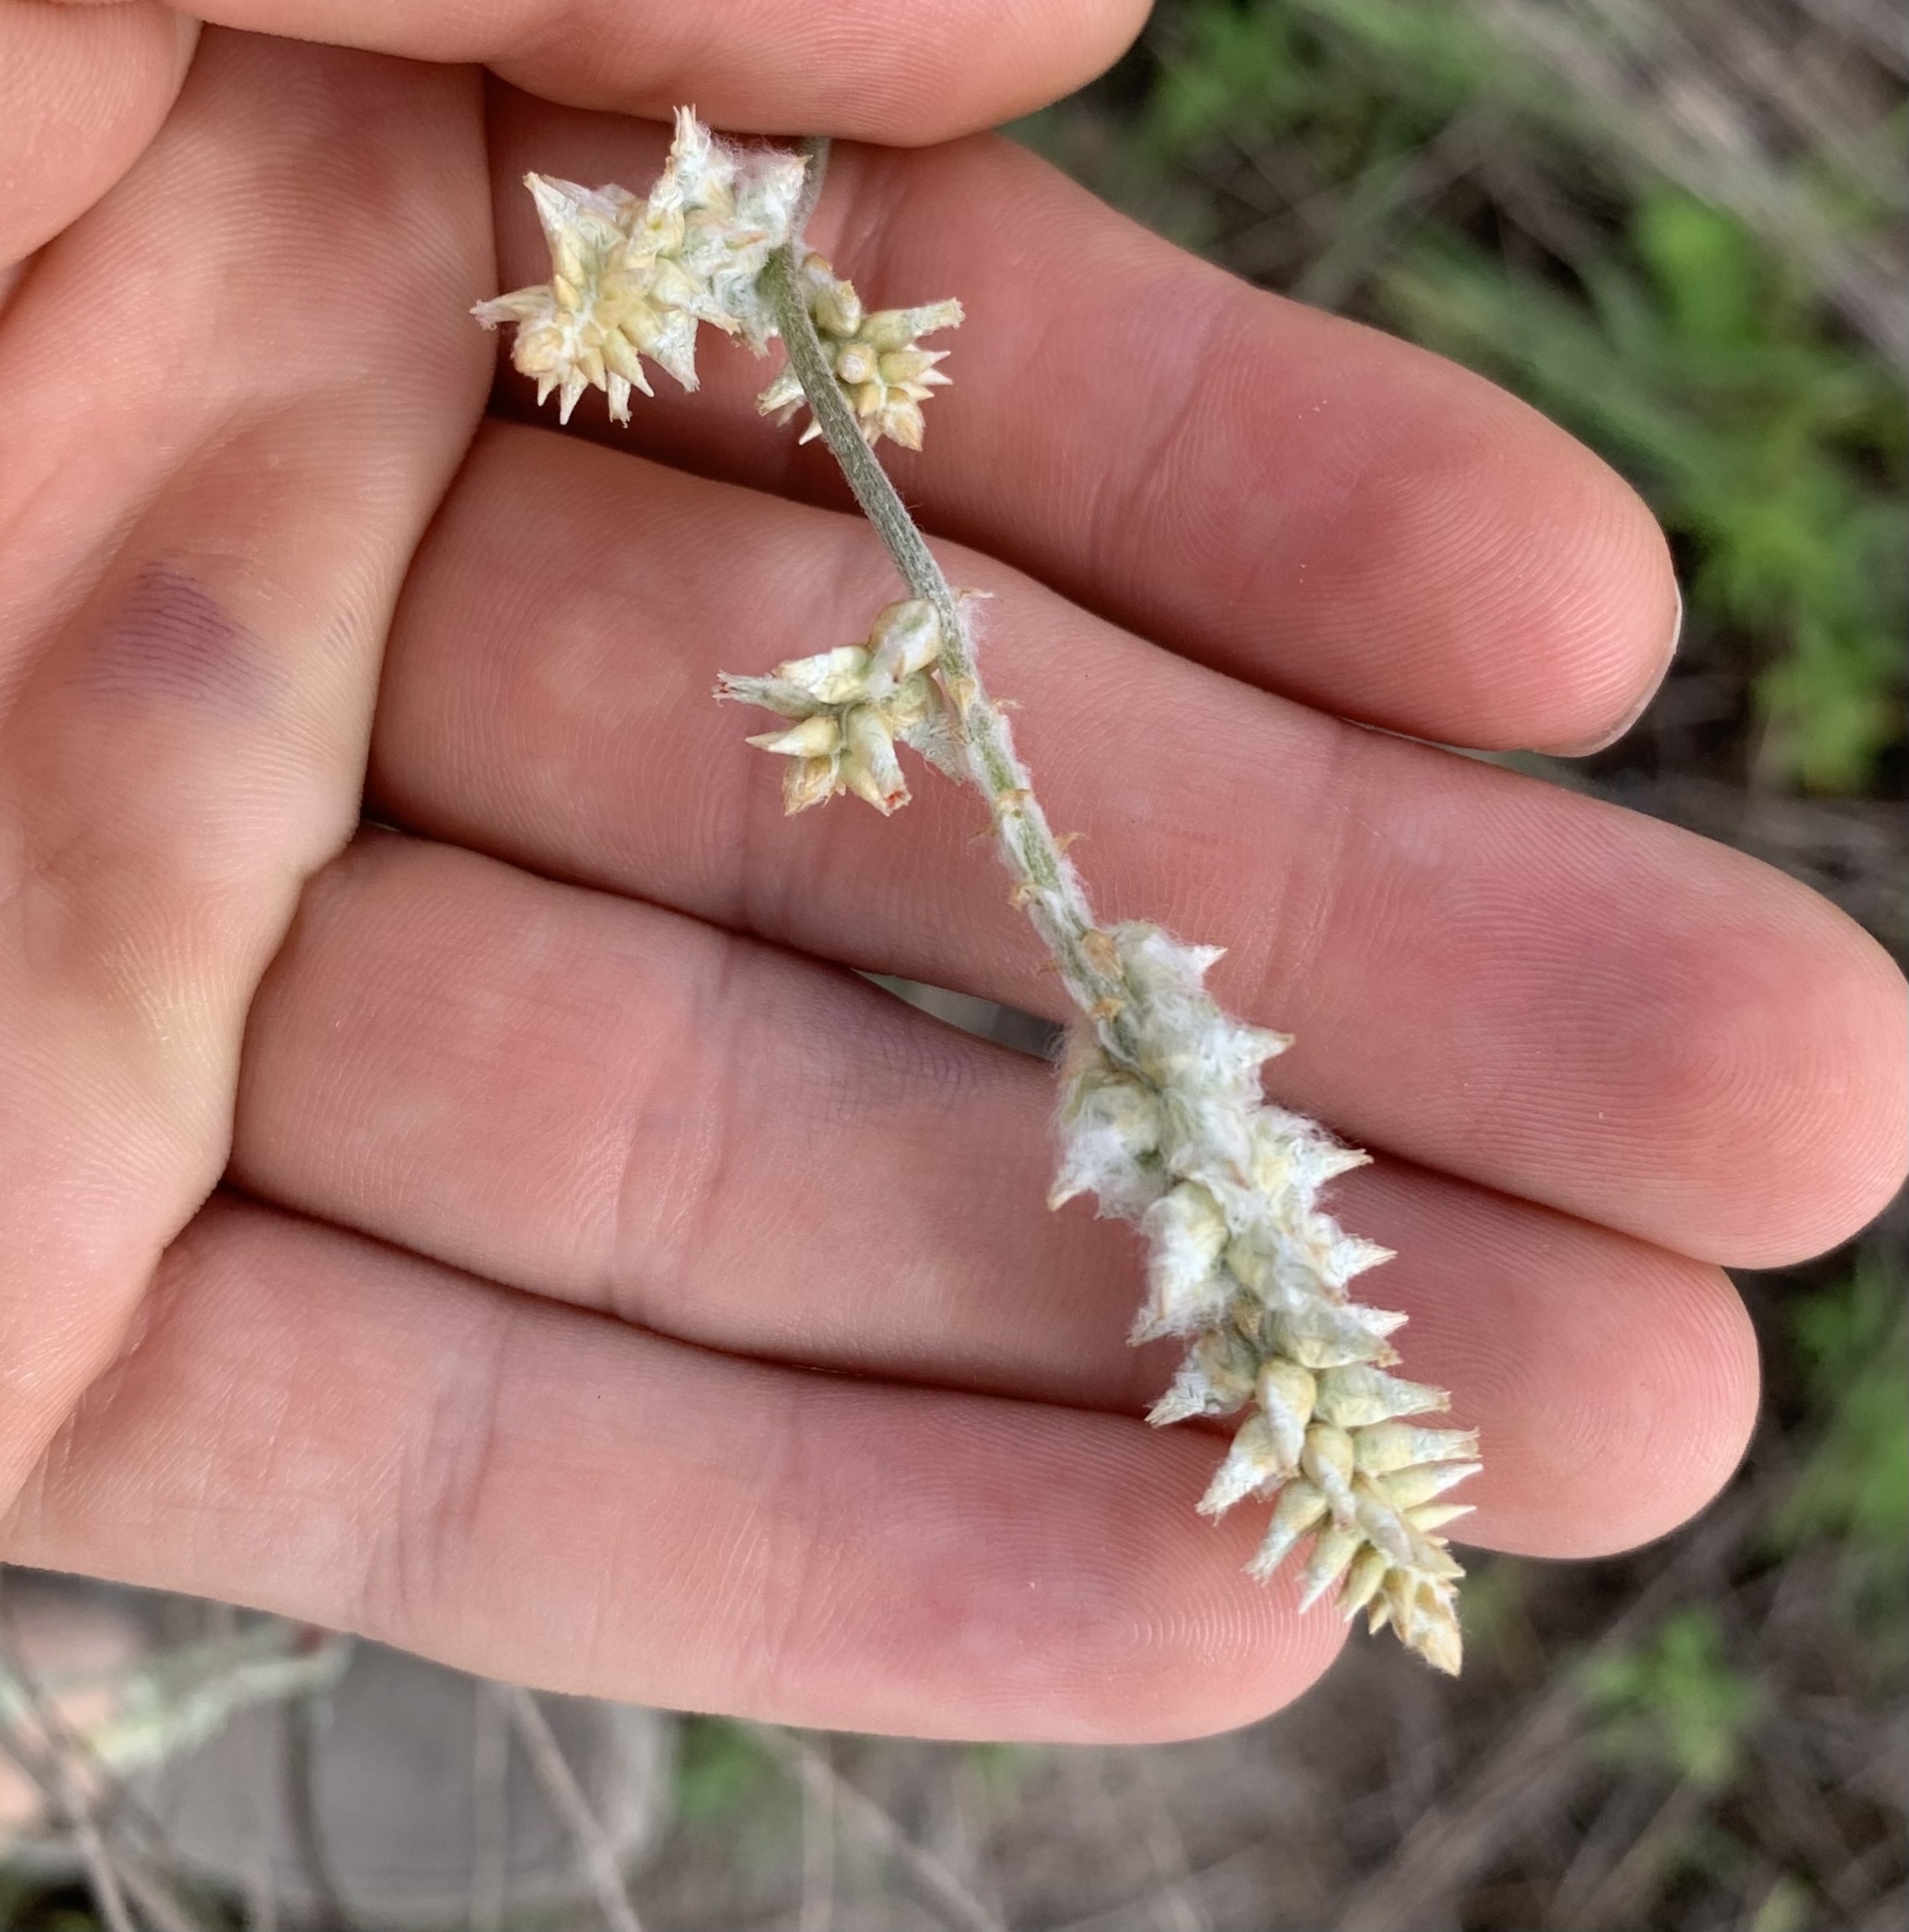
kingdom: Plantae
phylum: Tracheophyta
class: Magnoliopsida
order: Caryophyllales
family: Amaranthaceae
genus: Froelichia
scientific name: Froelichia floridana
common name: Florida snake-cotton
